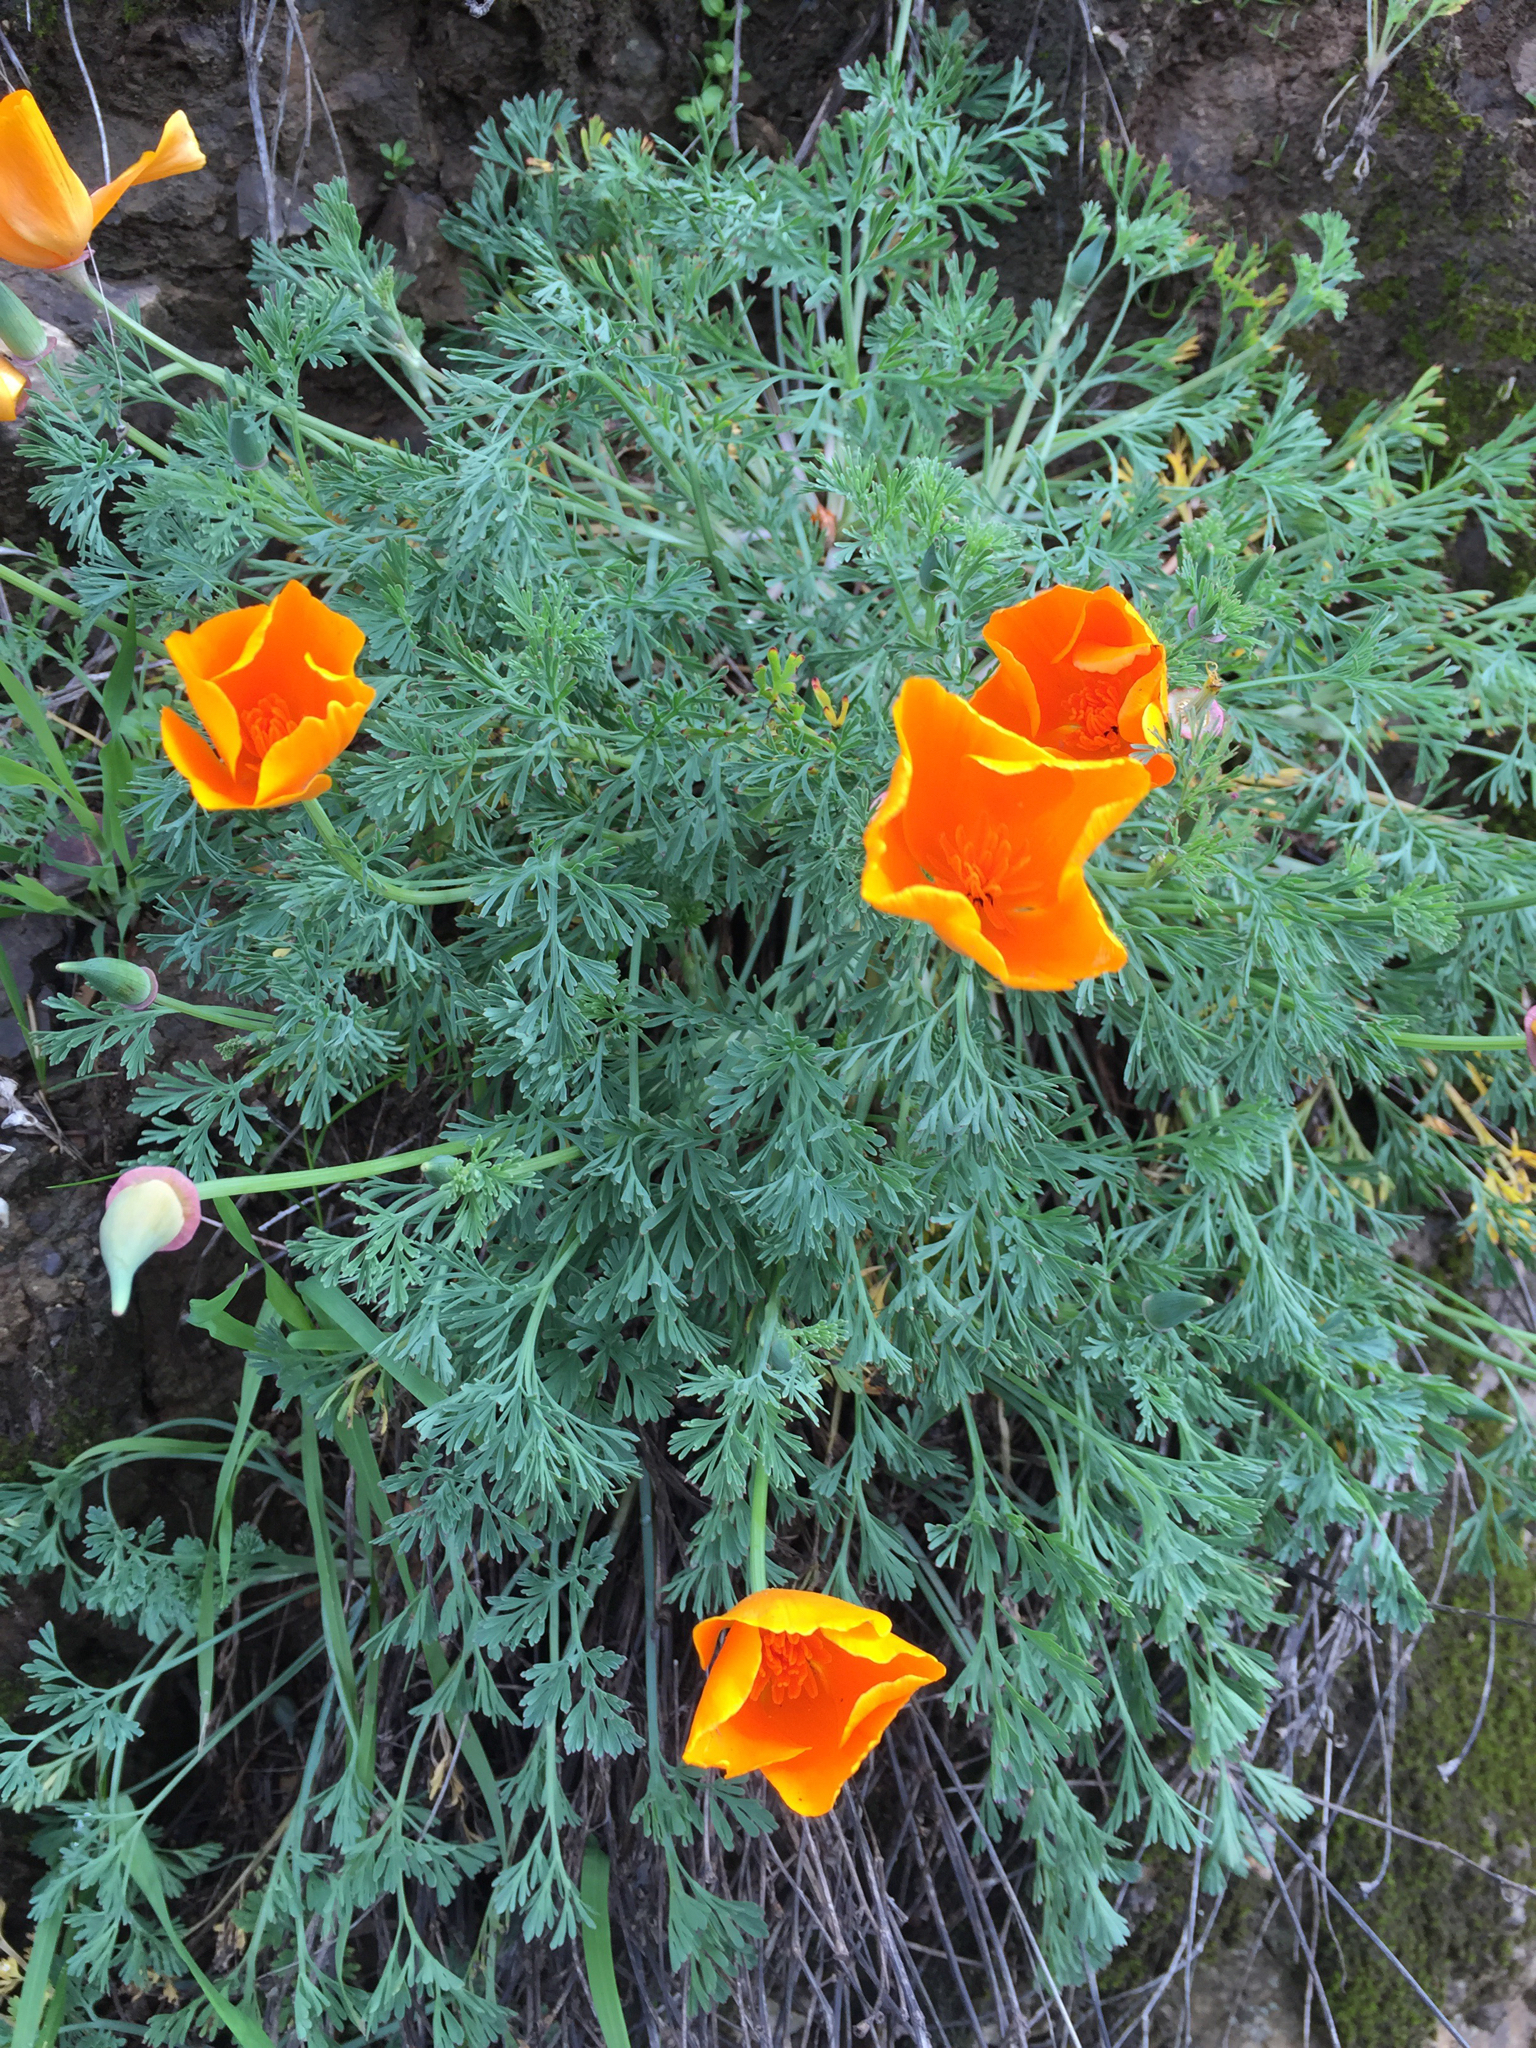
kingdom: Plantae
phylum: Tracheophyta
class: Magnoliopsida
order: Ranunculales
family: Papaveraceae
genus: Eschscholzia
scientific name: Eschscholzia californica
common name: California poppy
